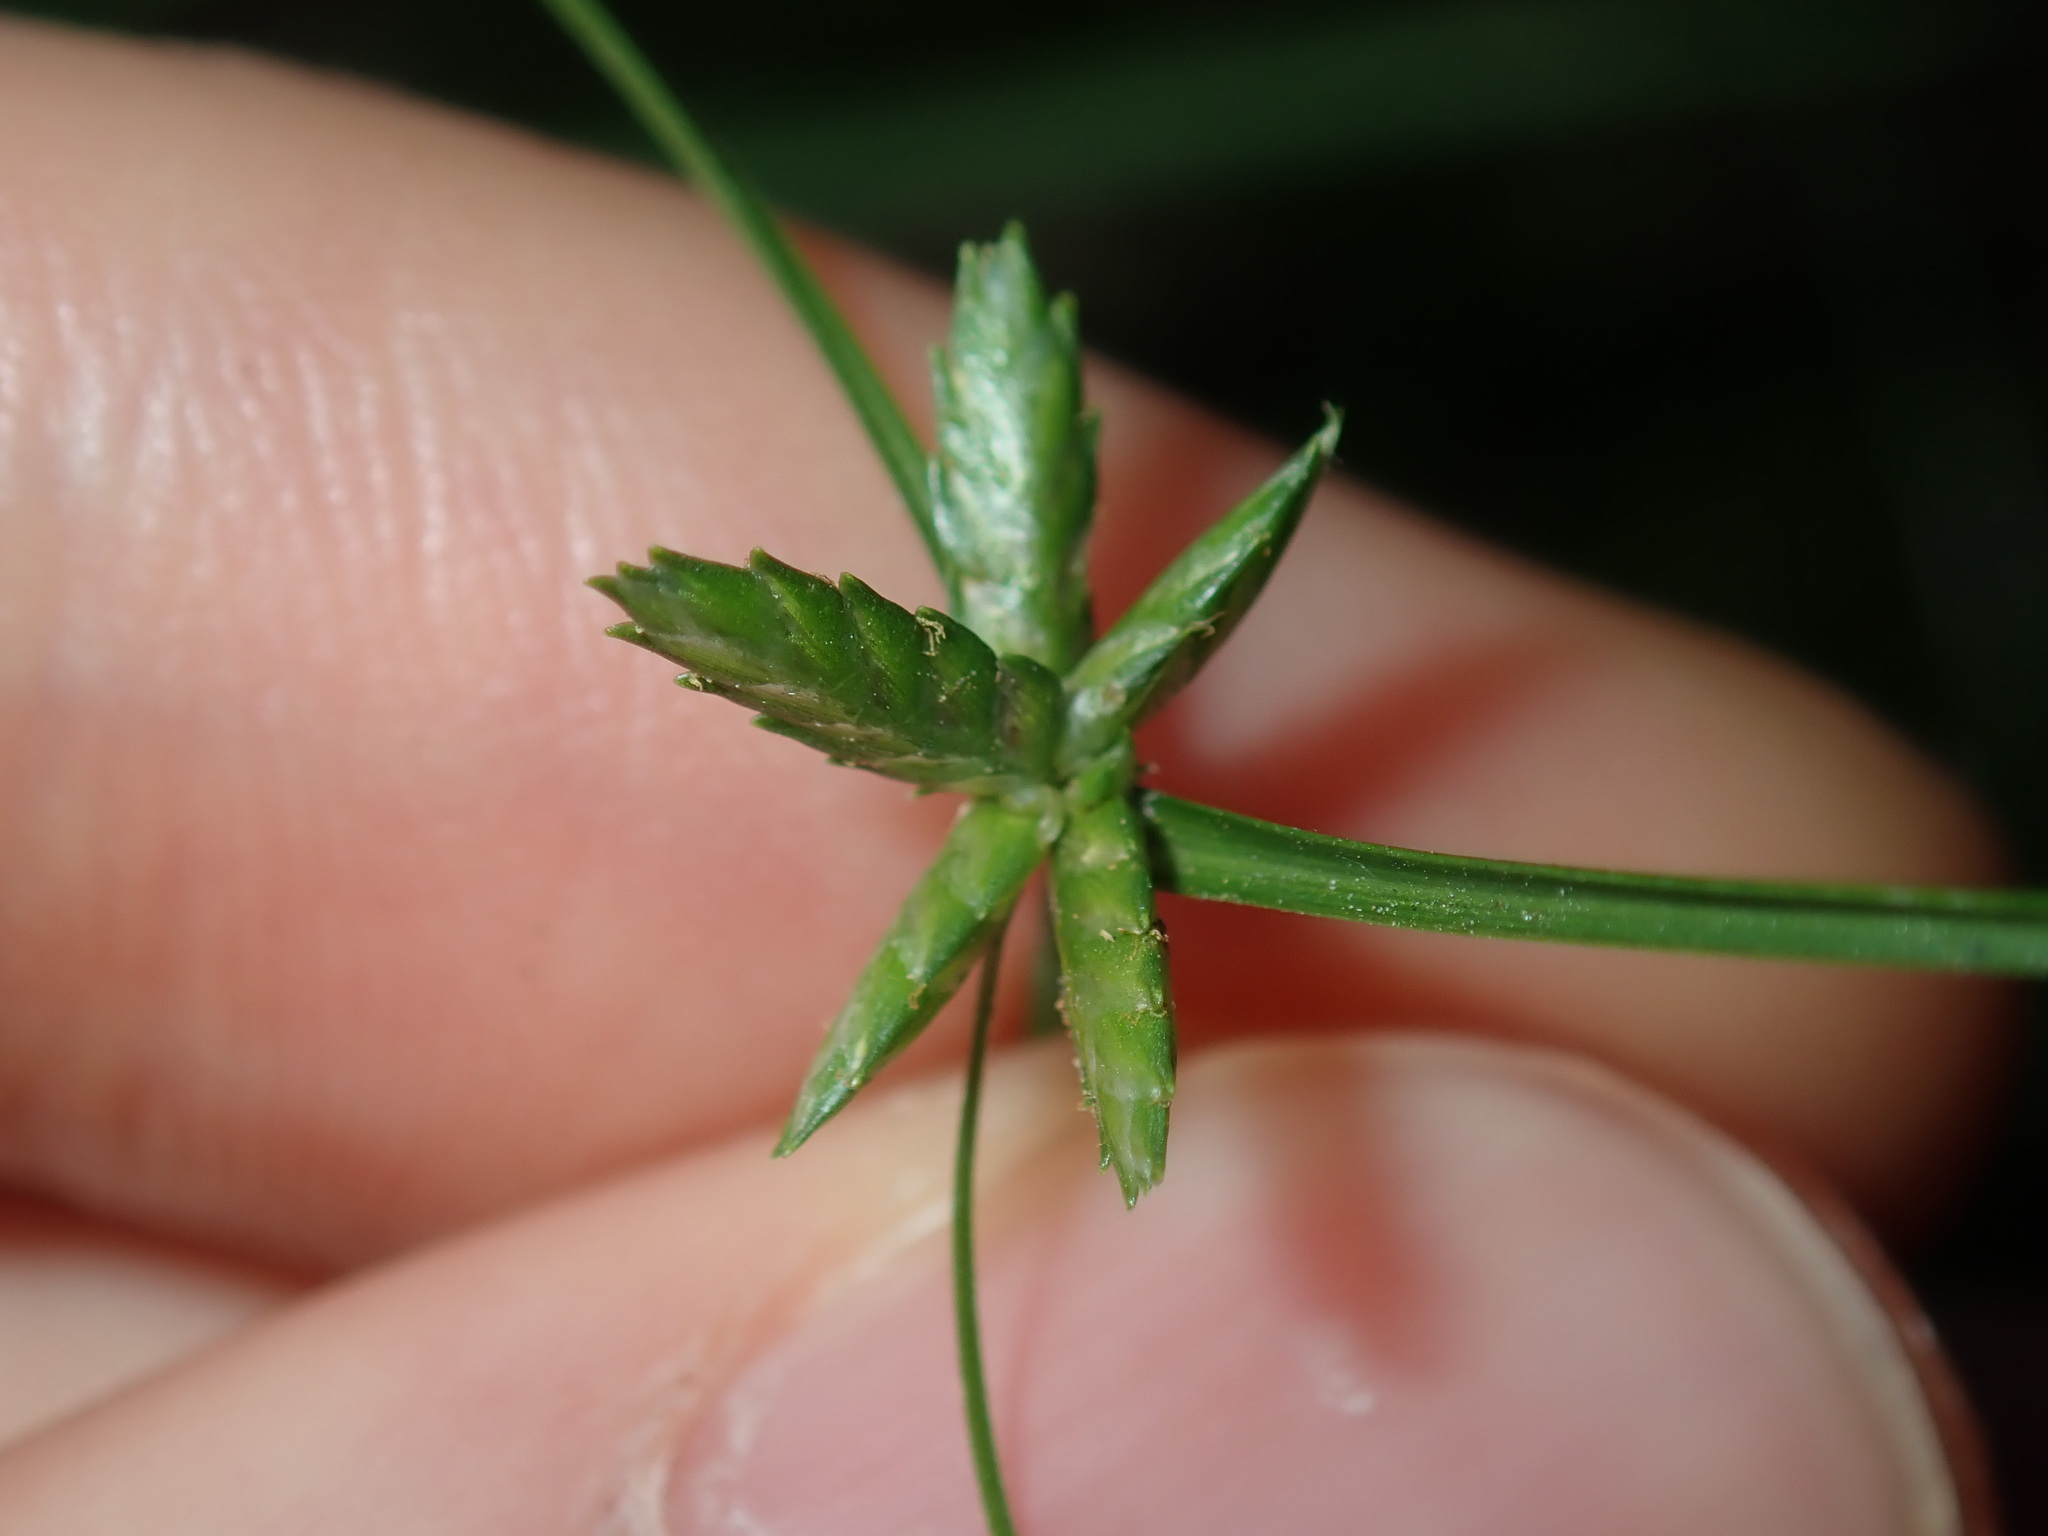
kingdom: Plantae
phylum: Tracheophyta
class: Liliopsida
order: Poales
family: Cyperaceae
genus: Cyperus
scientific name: Cyperus gracilis
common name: Slimjim flatsedge
